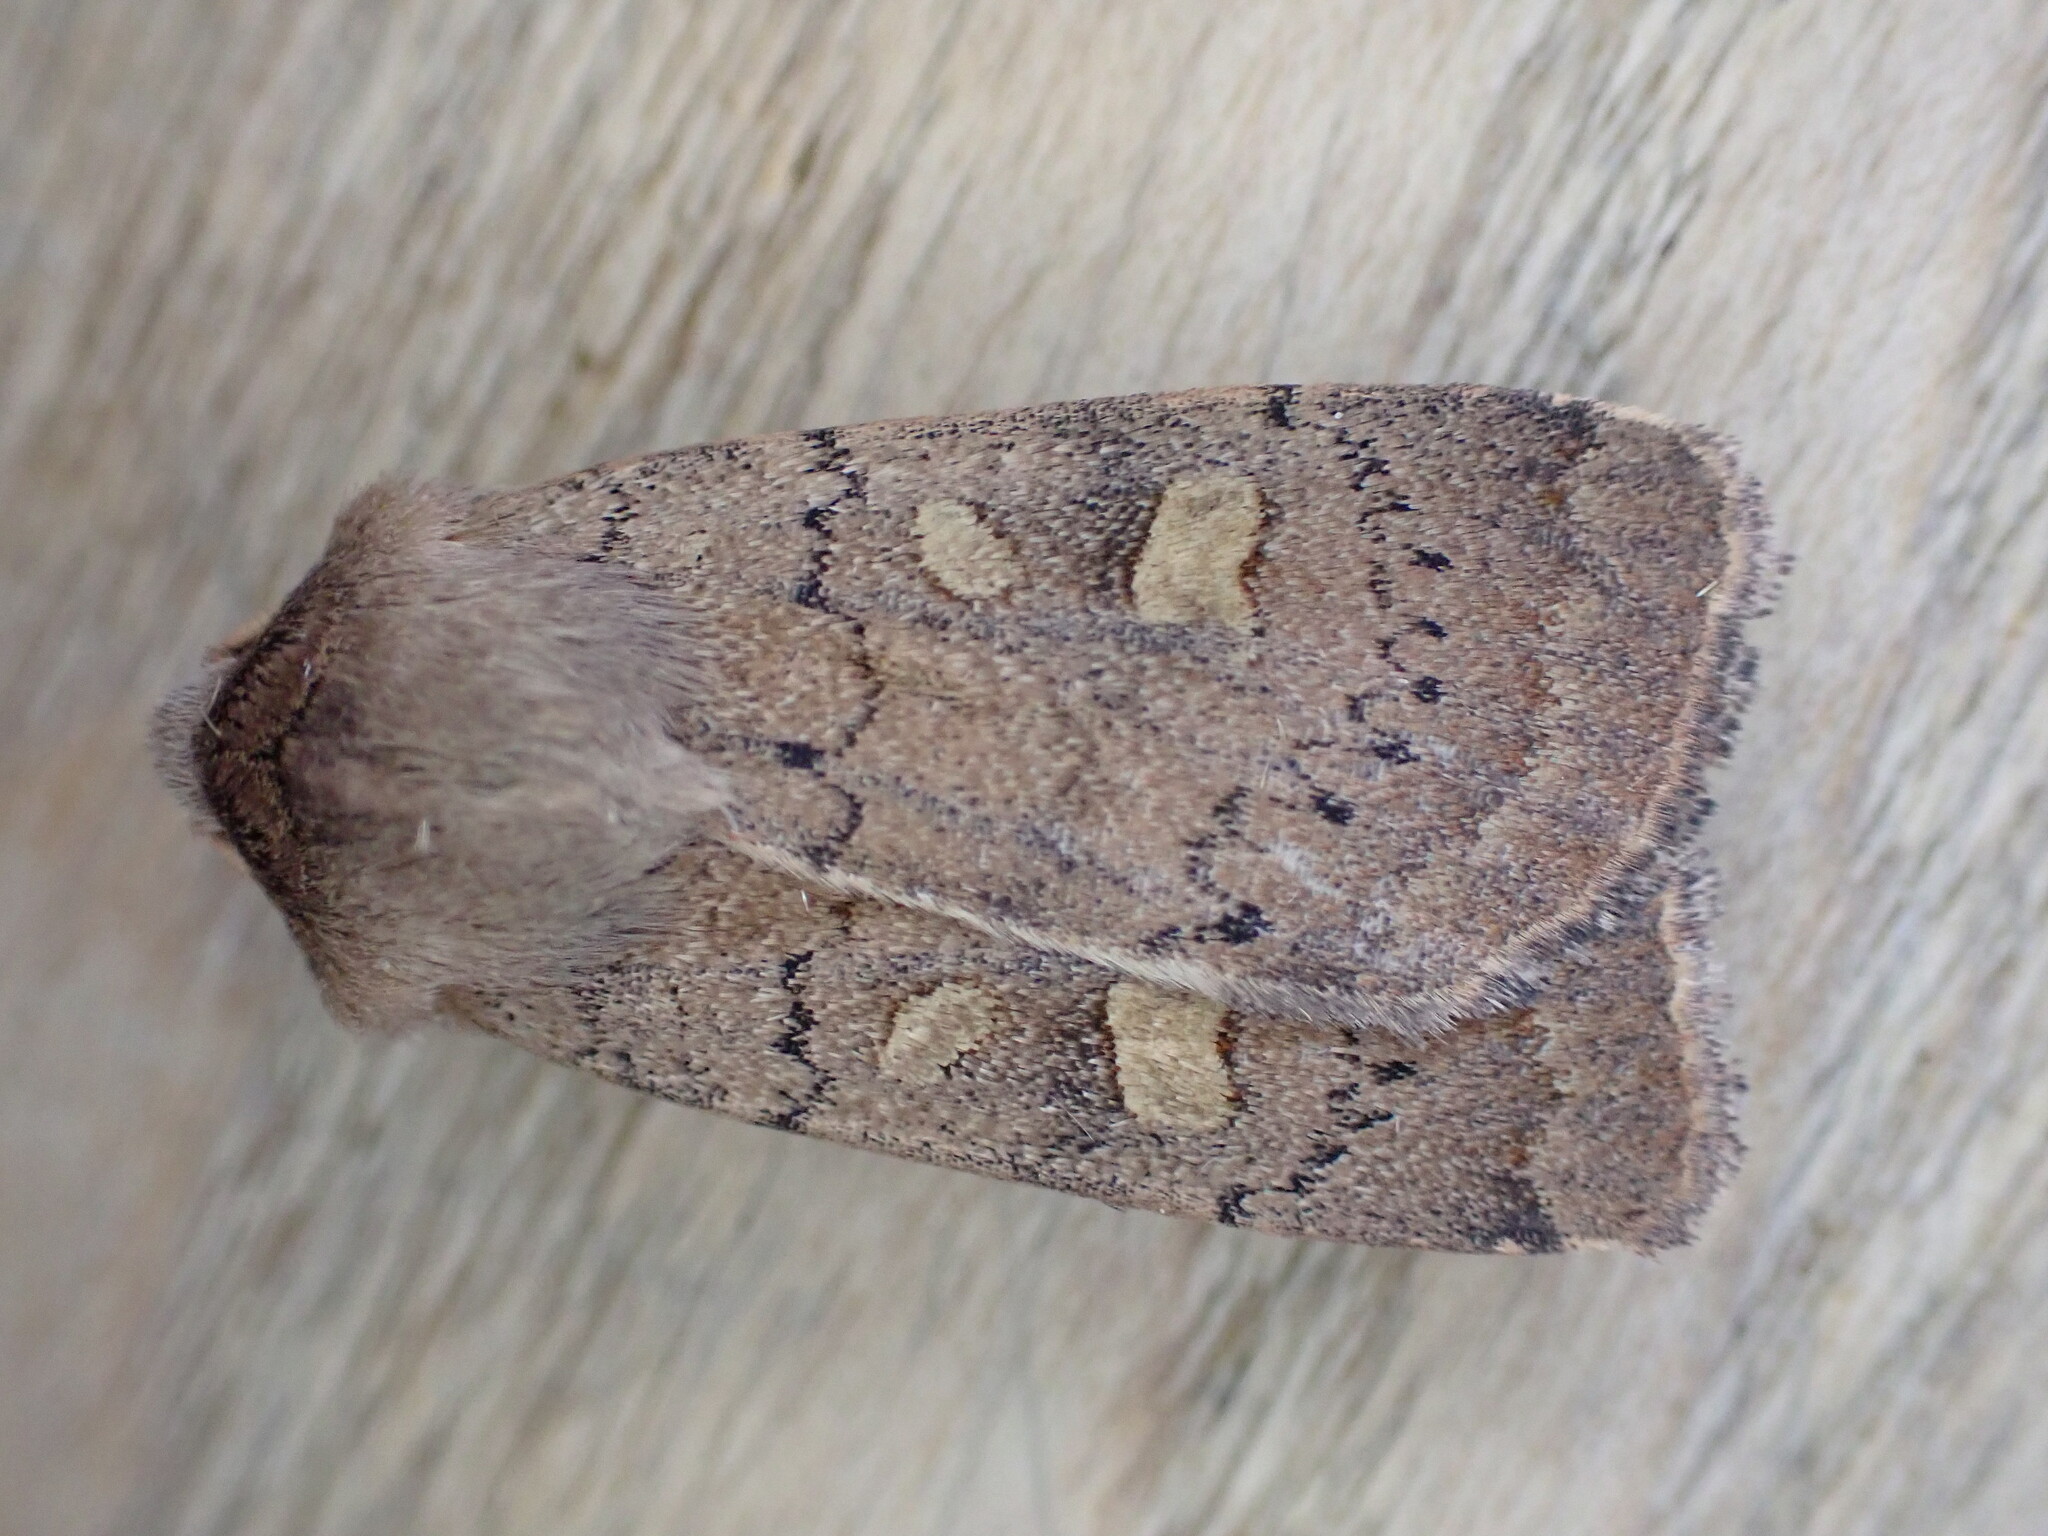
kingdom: Animalia
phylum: Arthropoda
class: Insecta
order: Lepidoptera
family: Noctuidae
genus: Xestia
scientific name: Xestia xanthographa
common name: Square-spot rustic
